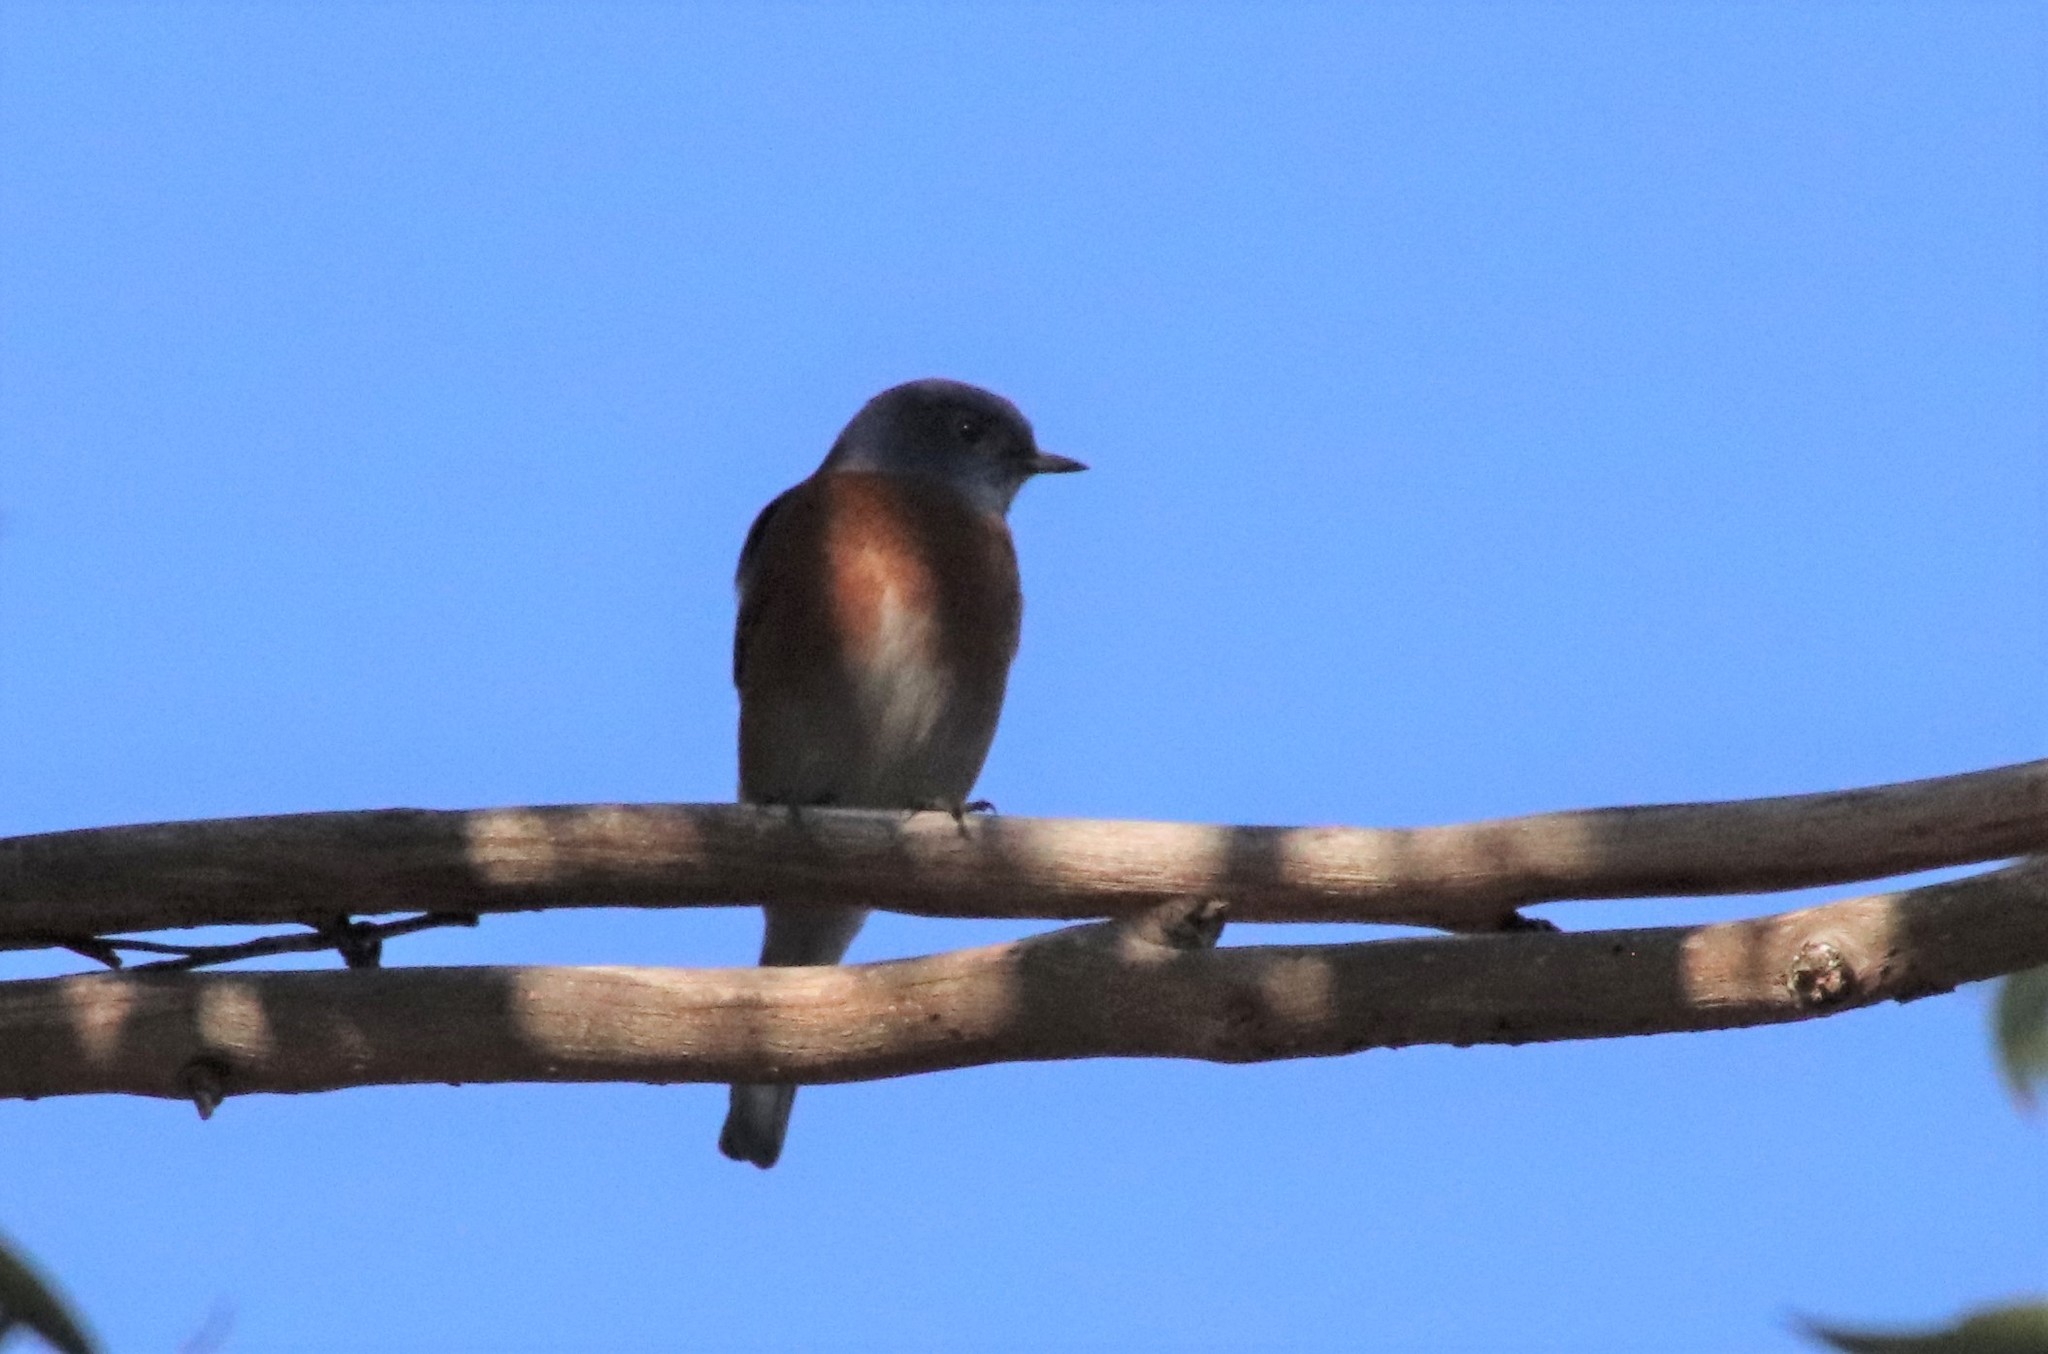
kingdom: Animalia
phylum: Chordata
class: Aves
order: Passeriformes
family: Turdidae
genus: Sialia
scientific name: Sialia mexicana
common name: Western bluebird
